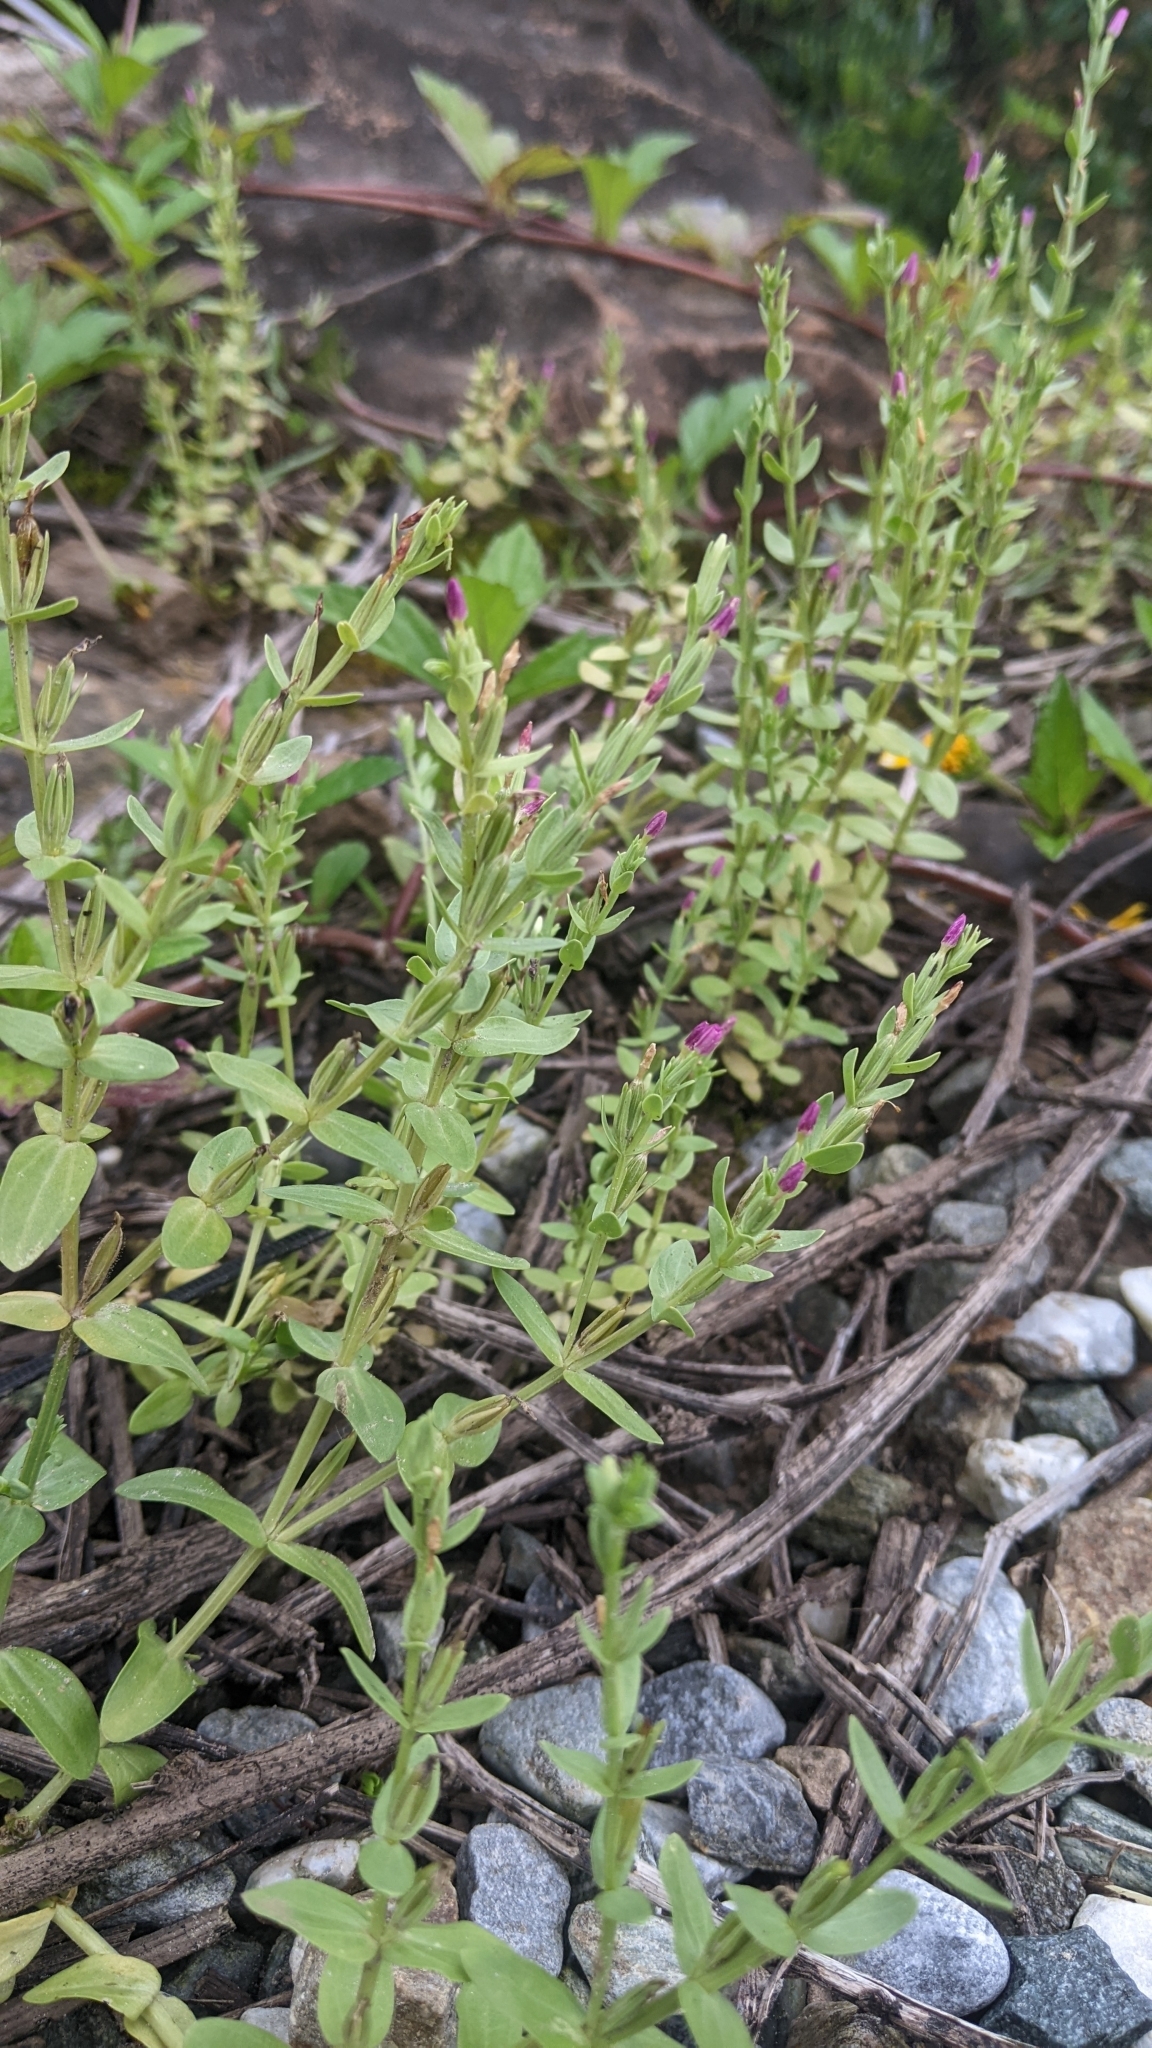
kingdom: Plantae
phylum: Tracheophyta
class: Magnoliopsida
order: Gentianales
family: Gentianaceae
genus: Schenkia
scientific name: Schenkia japonica
